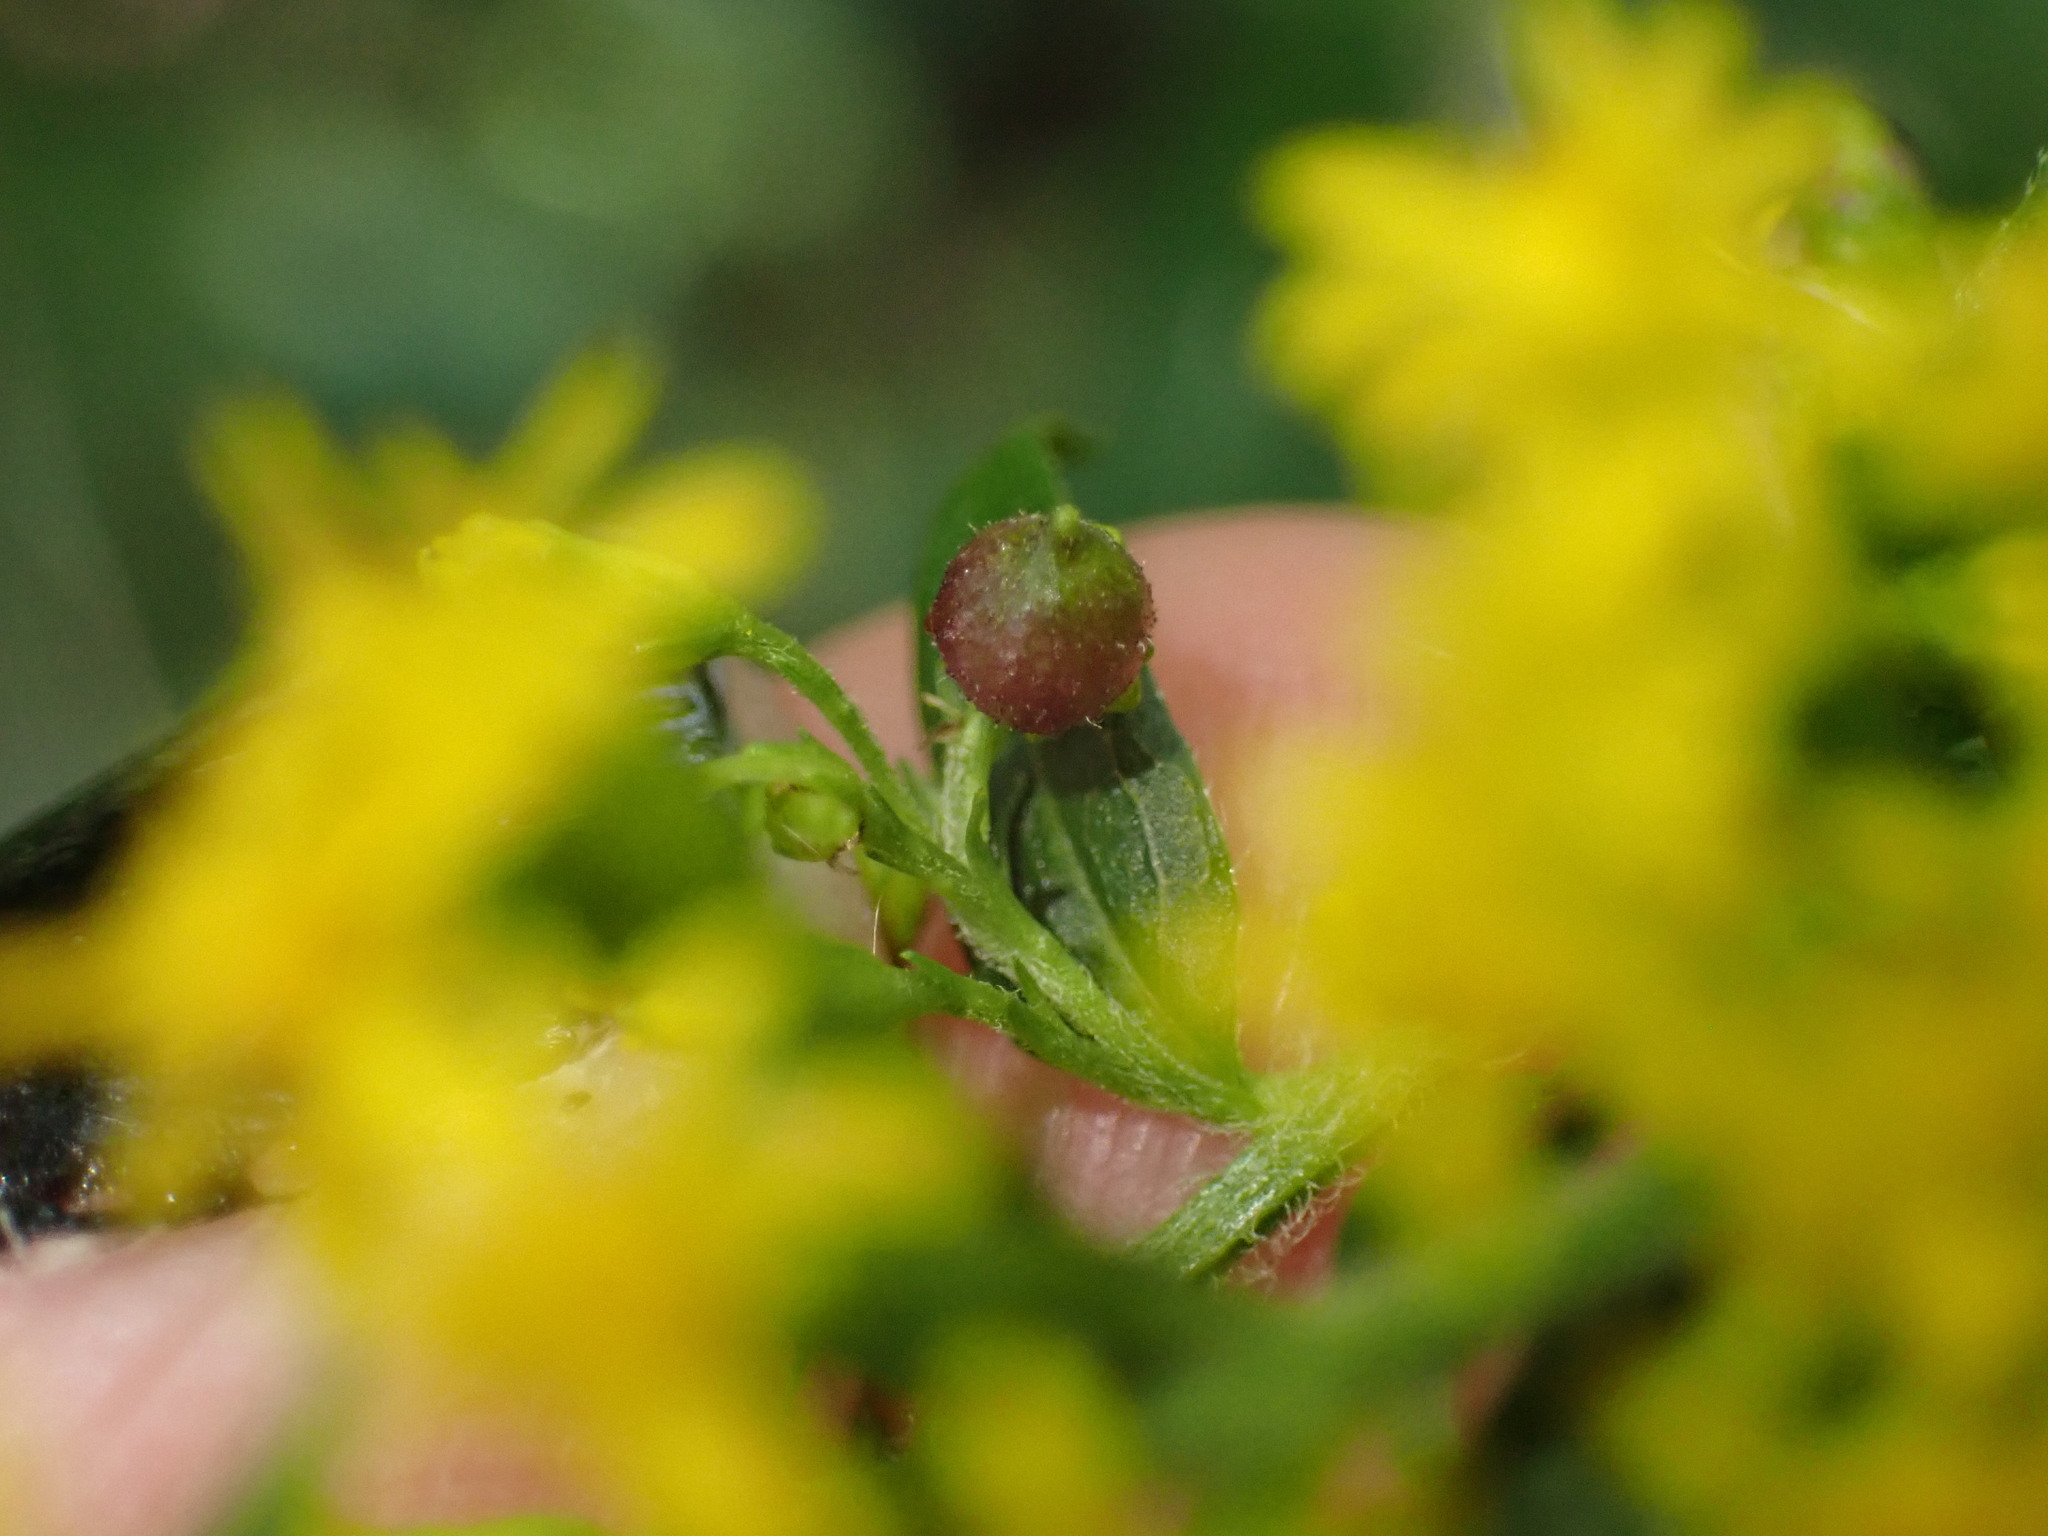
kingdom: Animalia
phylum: Arthropoda
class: Insecta
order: Diptera
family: Cecidomyiidae
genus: Schizomyia
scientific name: Schizomyia racemicola
